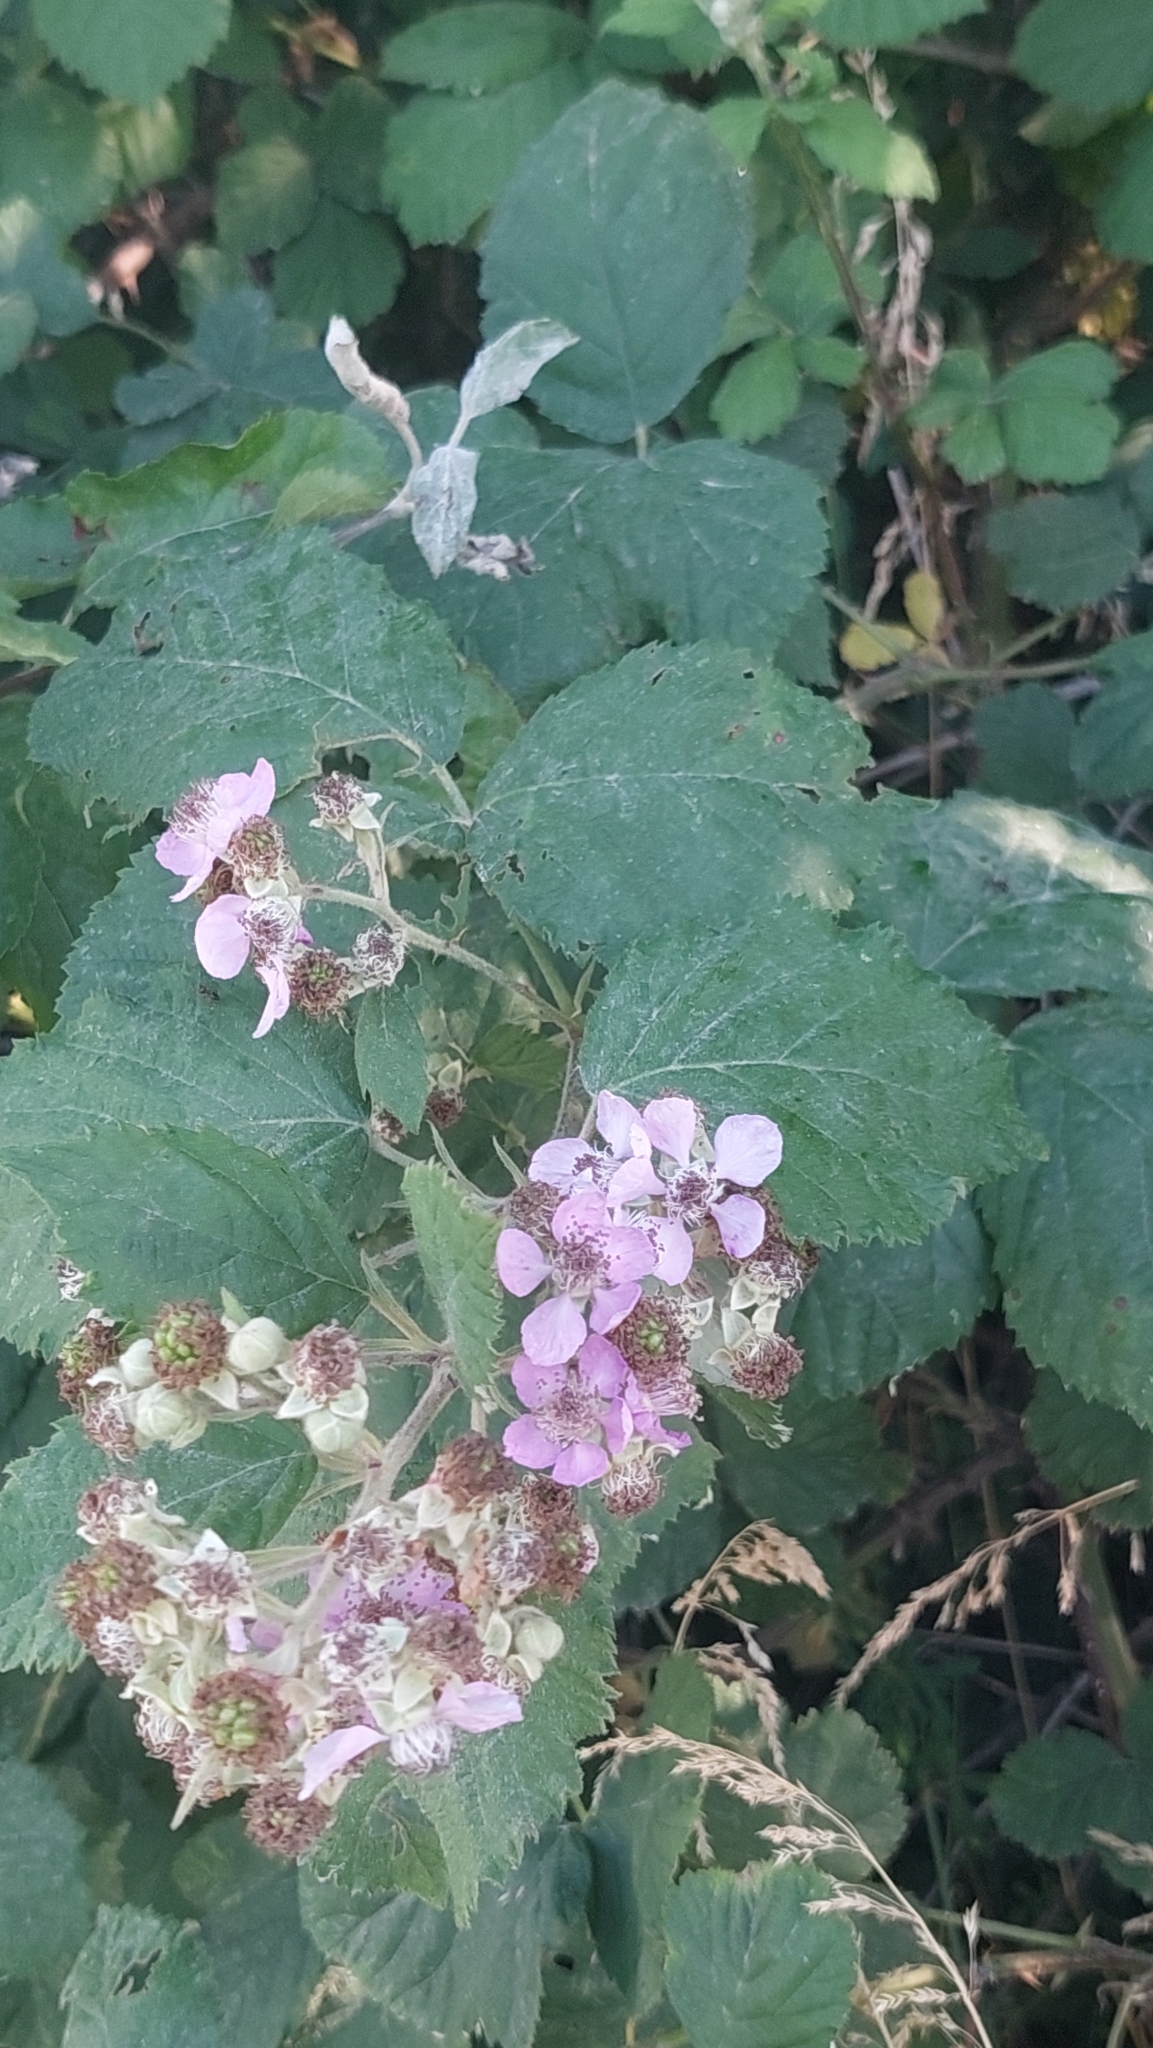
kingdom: Plantae
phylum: Tracheophyta
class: Magnoliopsida
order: Rosales
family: Rosaceae
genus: Rubus
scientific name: Rubus sanctus
